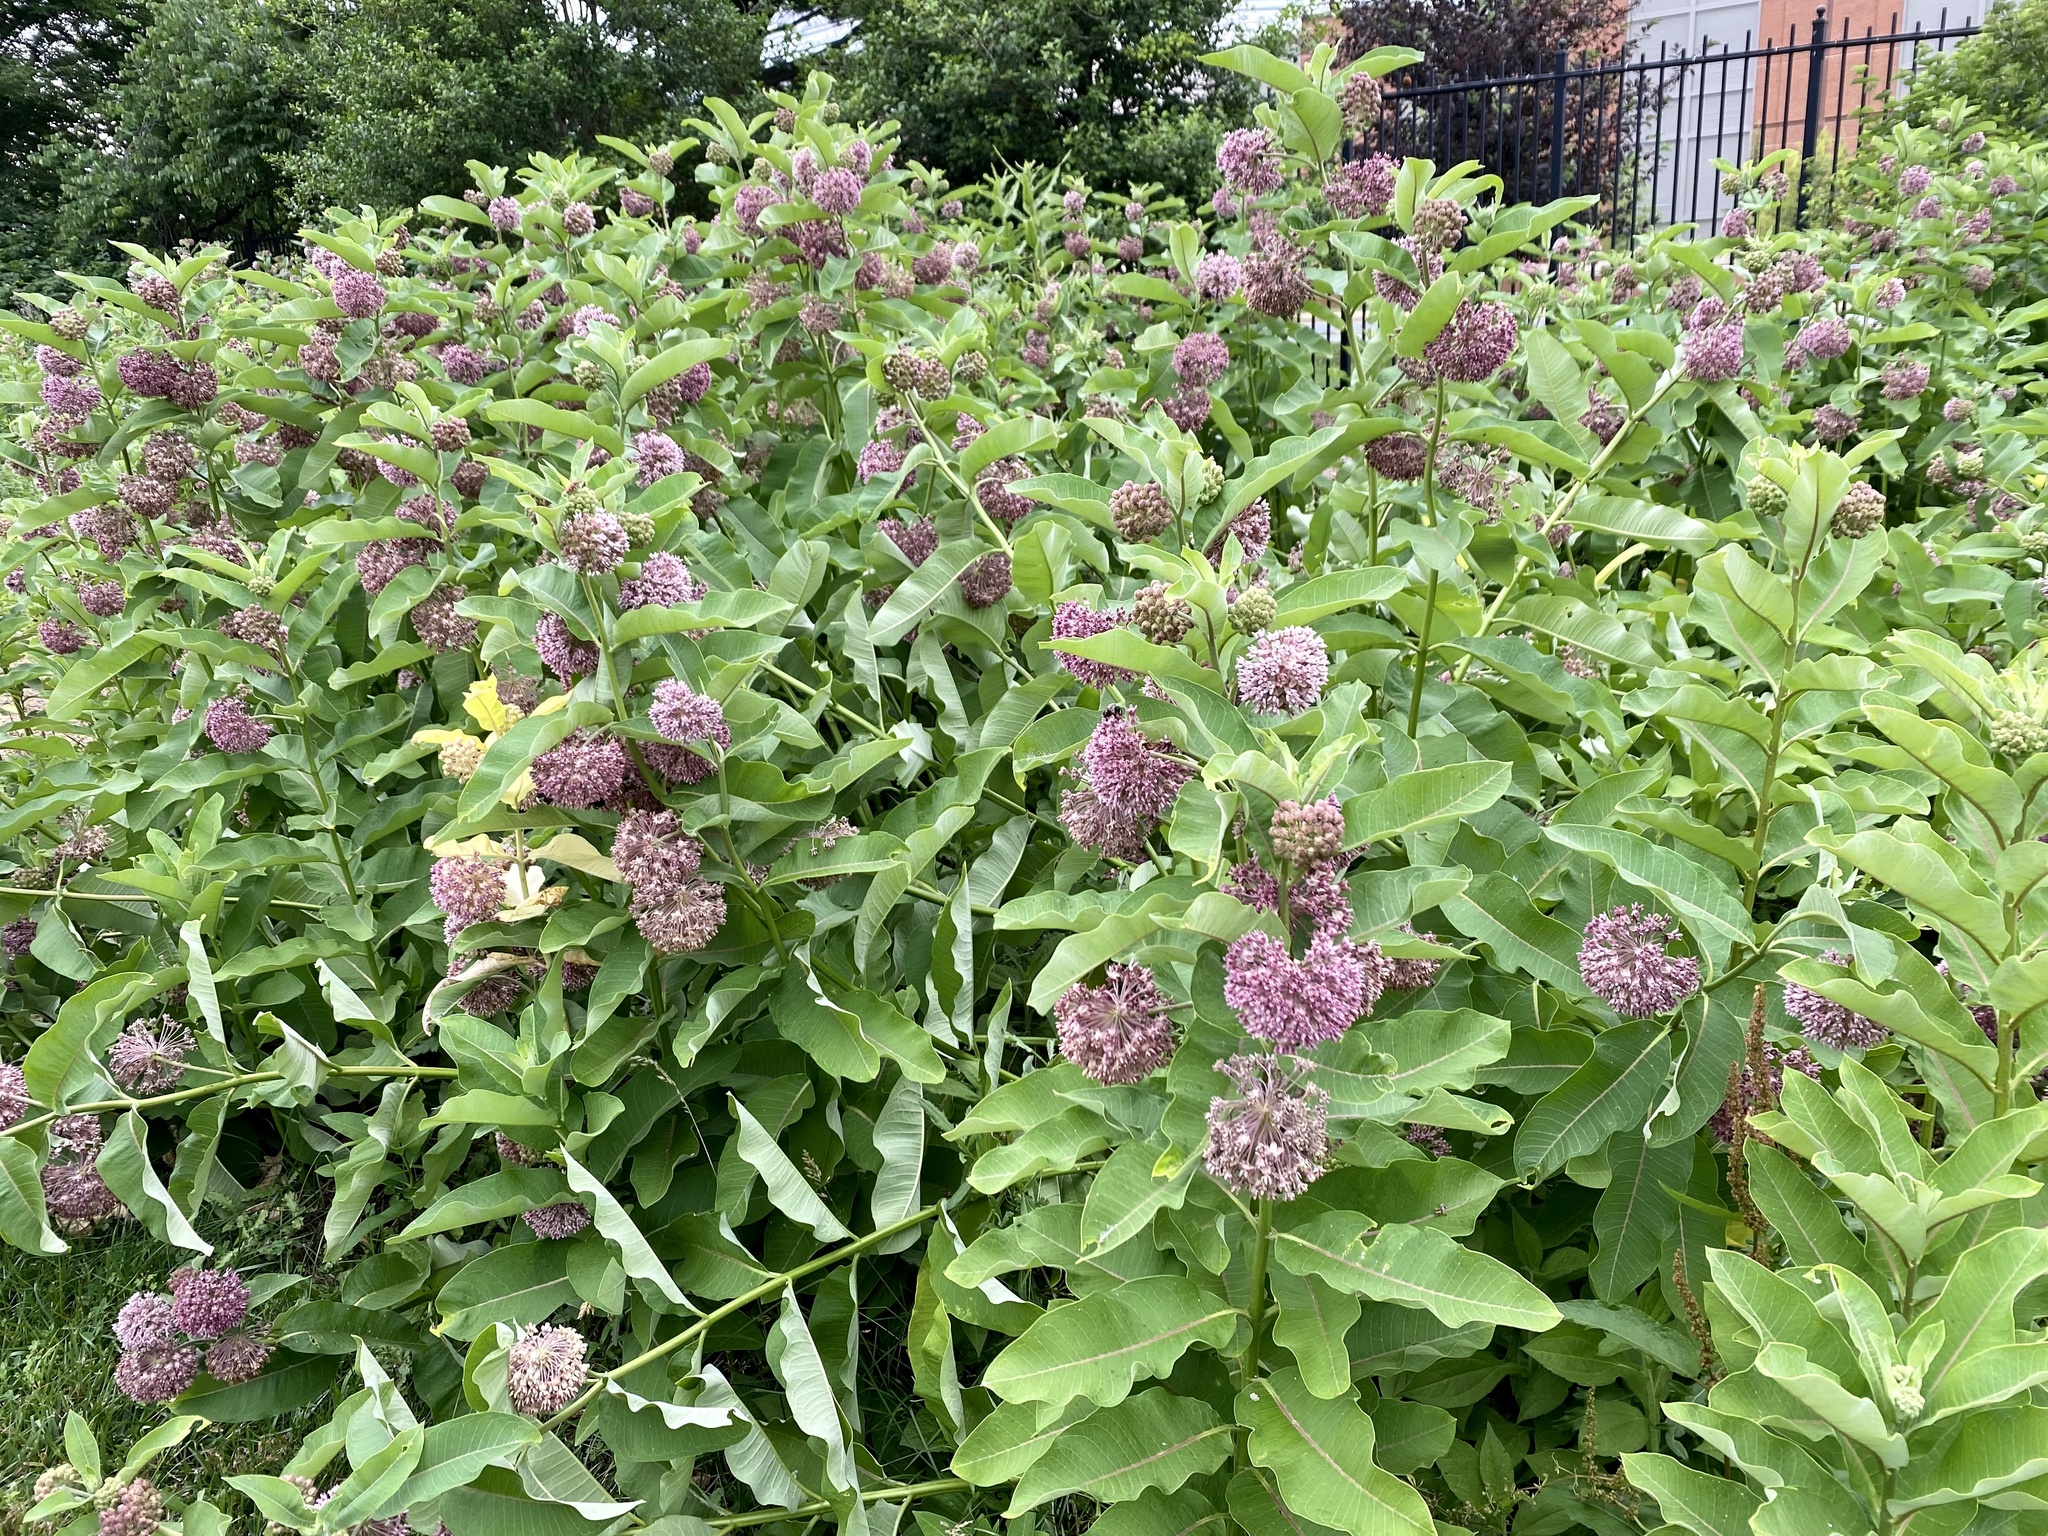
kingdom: Plantae
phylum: Tracheophyta
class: Magnoliopsida
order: Gentianales
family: Apocynaceae
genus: Asclepias
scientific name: Asclepias syriaca
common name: Common milkweed
